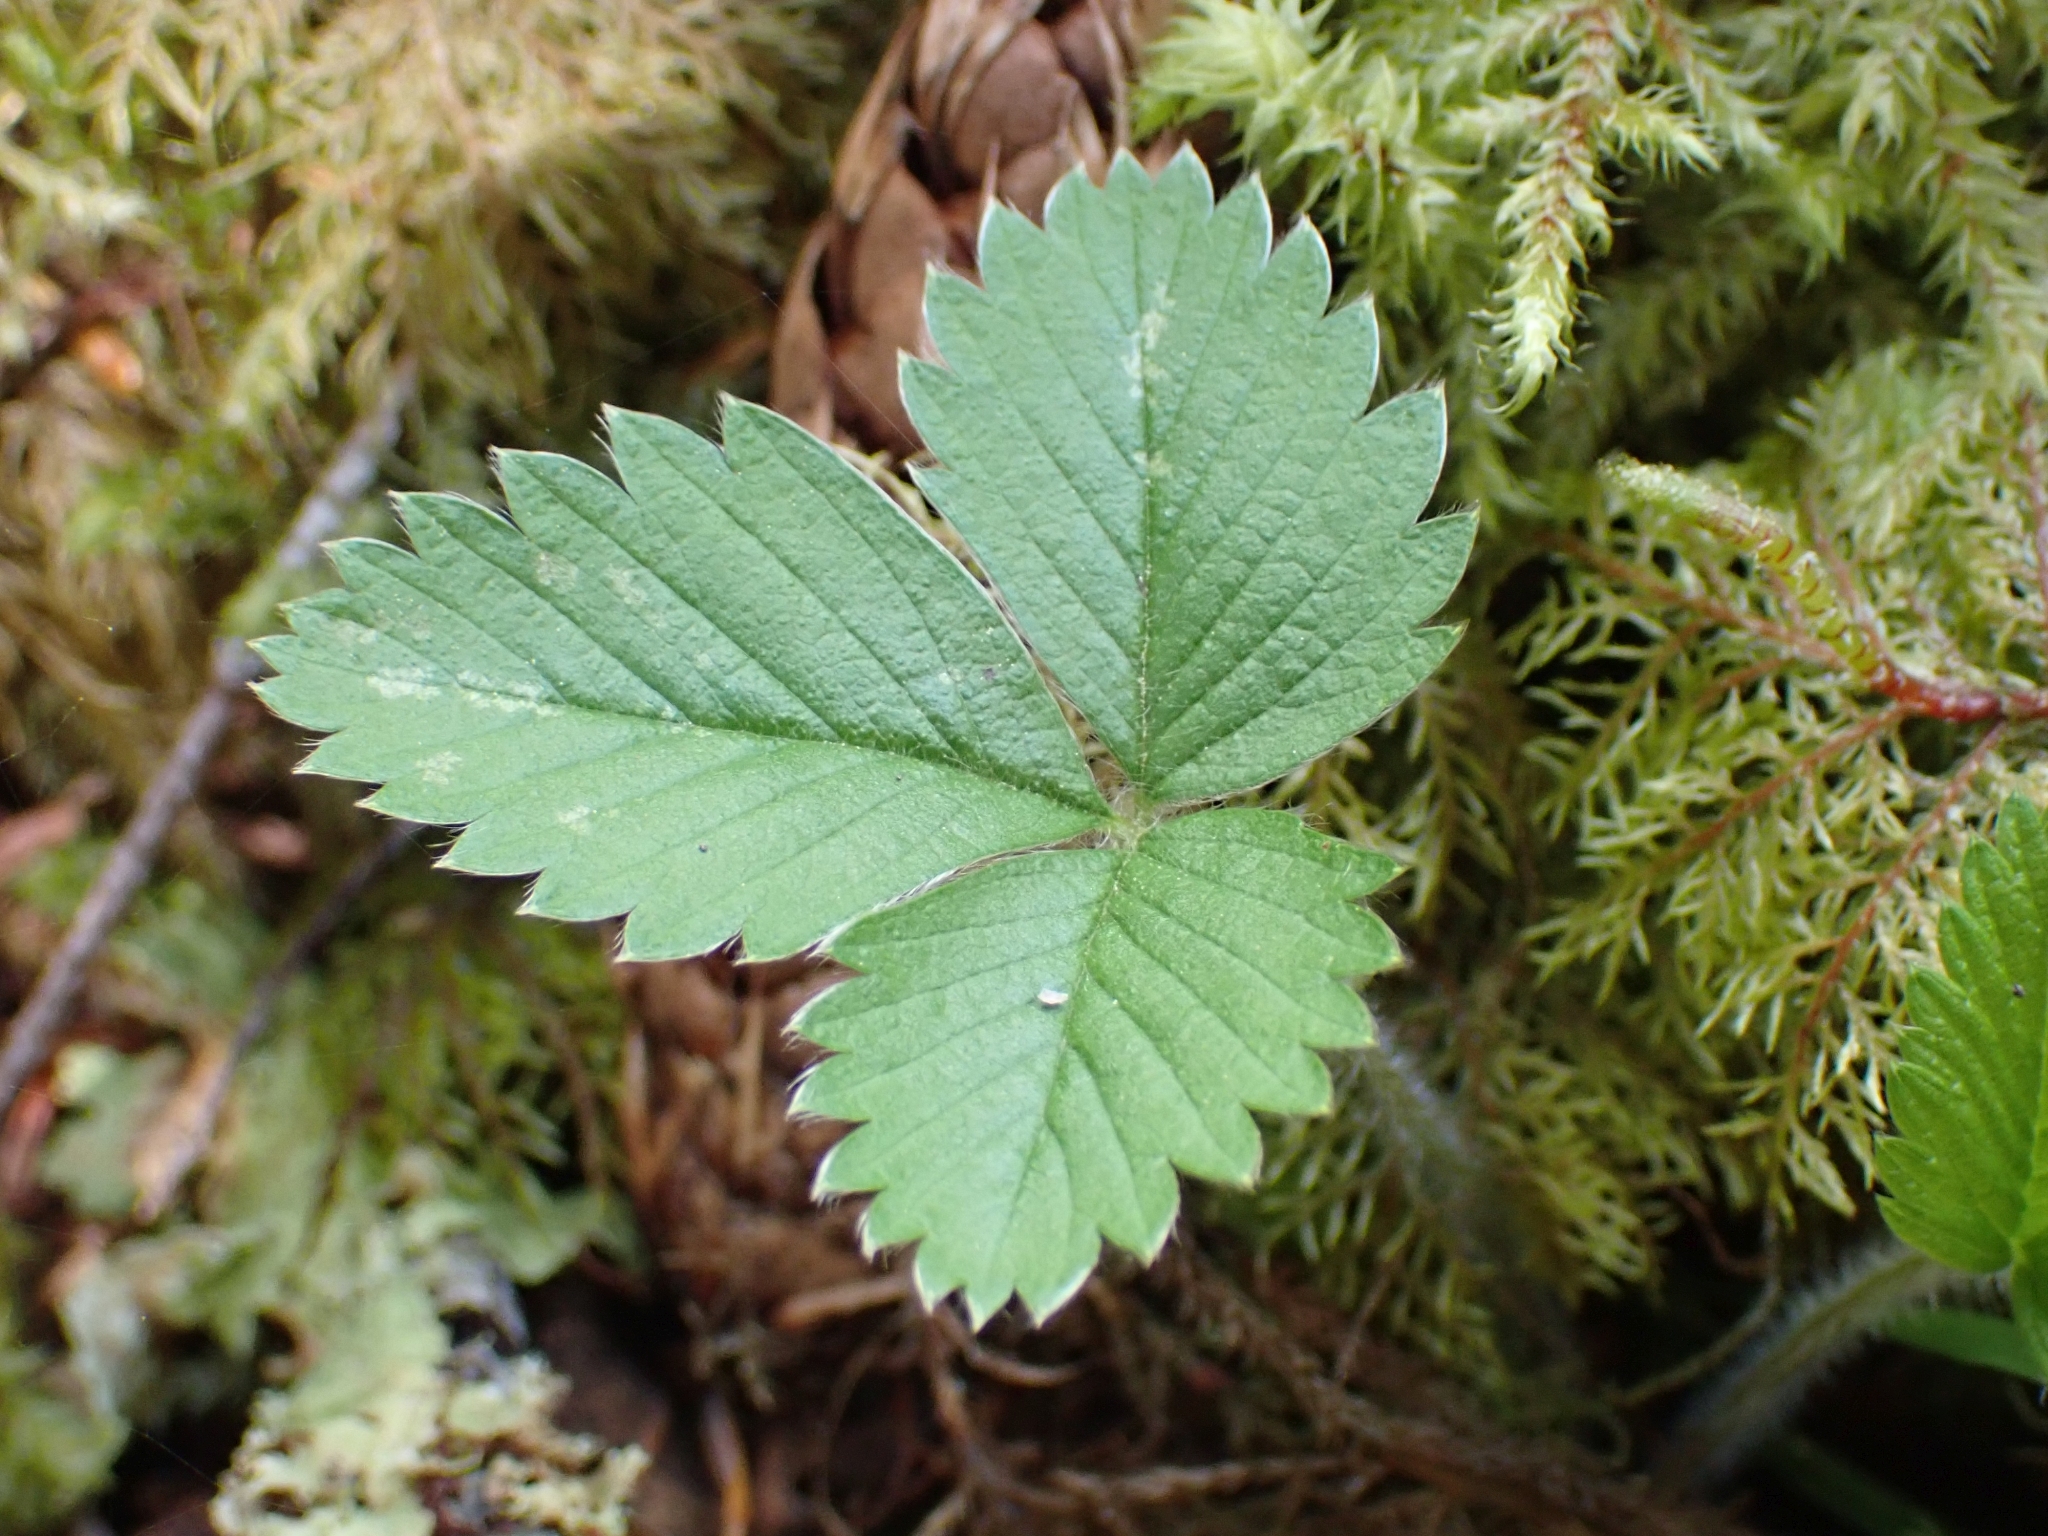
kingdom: Plantae
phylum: Tracheophyta
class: Magnoliopsida
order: Rosales
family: Rosaceae
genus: Fragaria
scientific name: Fragaria vesca
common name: Wild strawberry
